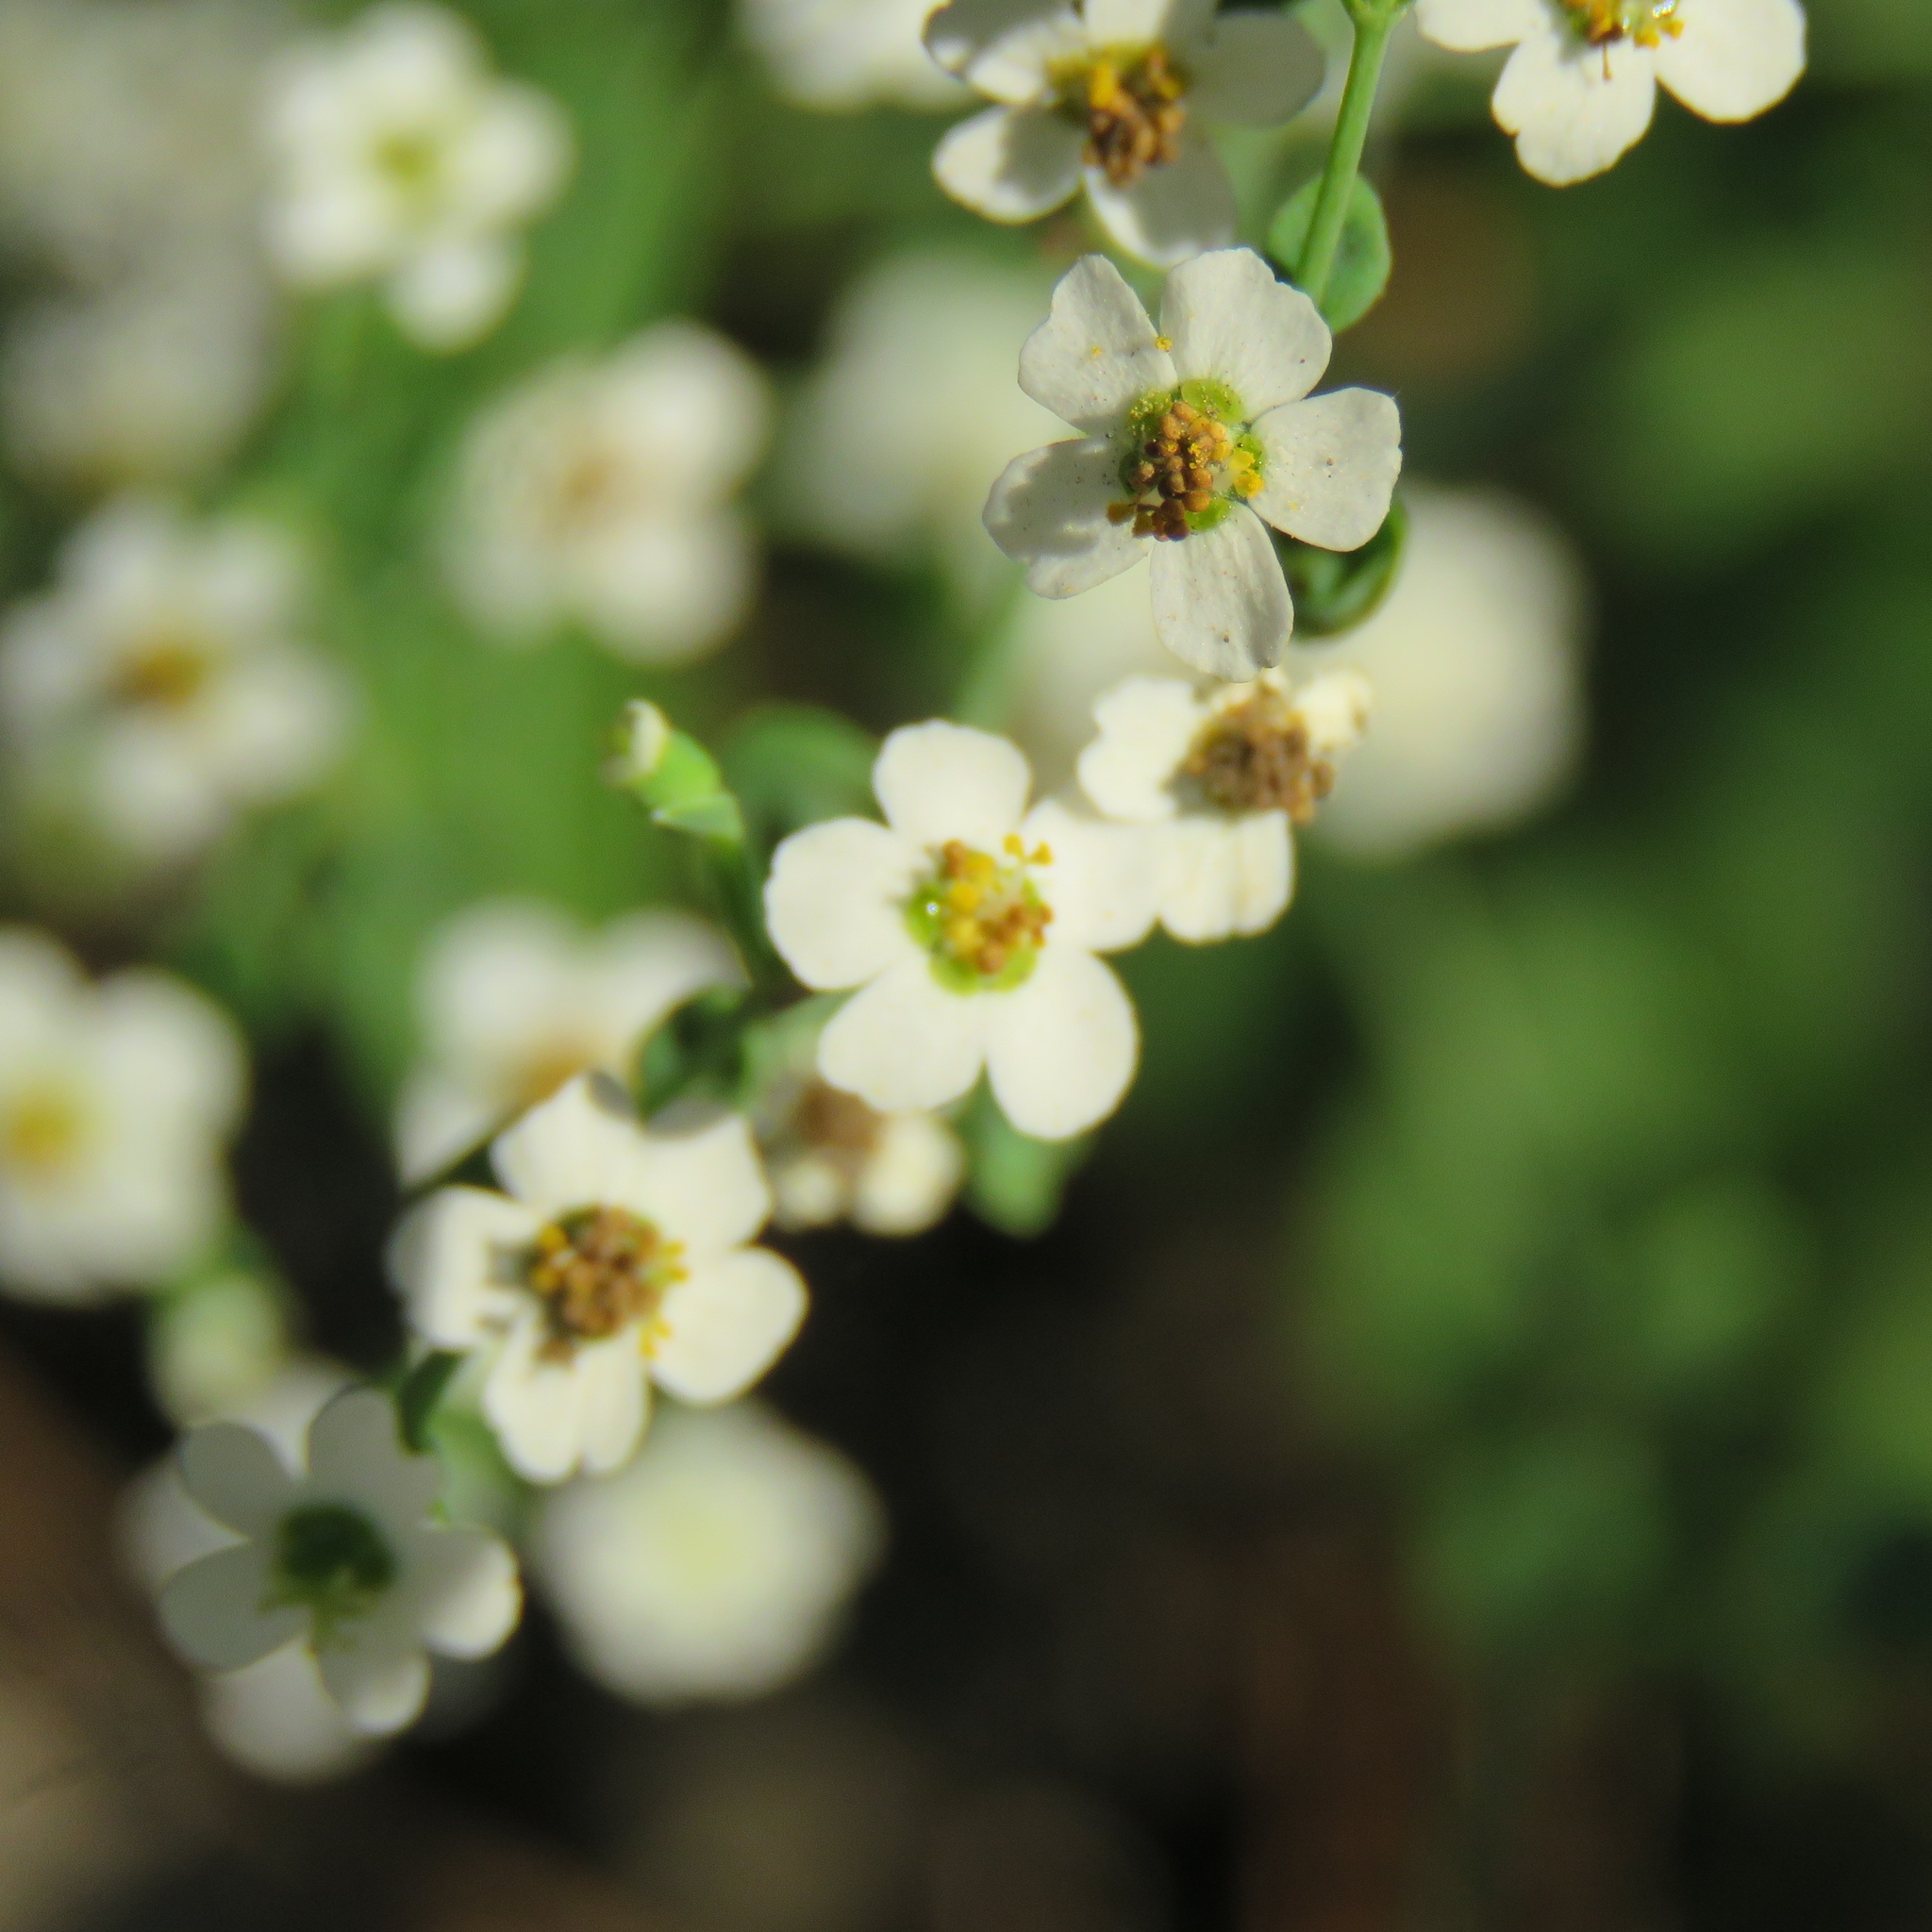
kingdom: Plantae
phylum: Tracheophyta
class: Magnoliopsida
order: Malpighiales
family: Euphorbiaceae
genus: Euphorbia
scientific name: Euphorbia corollata
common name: Flowering spurge
